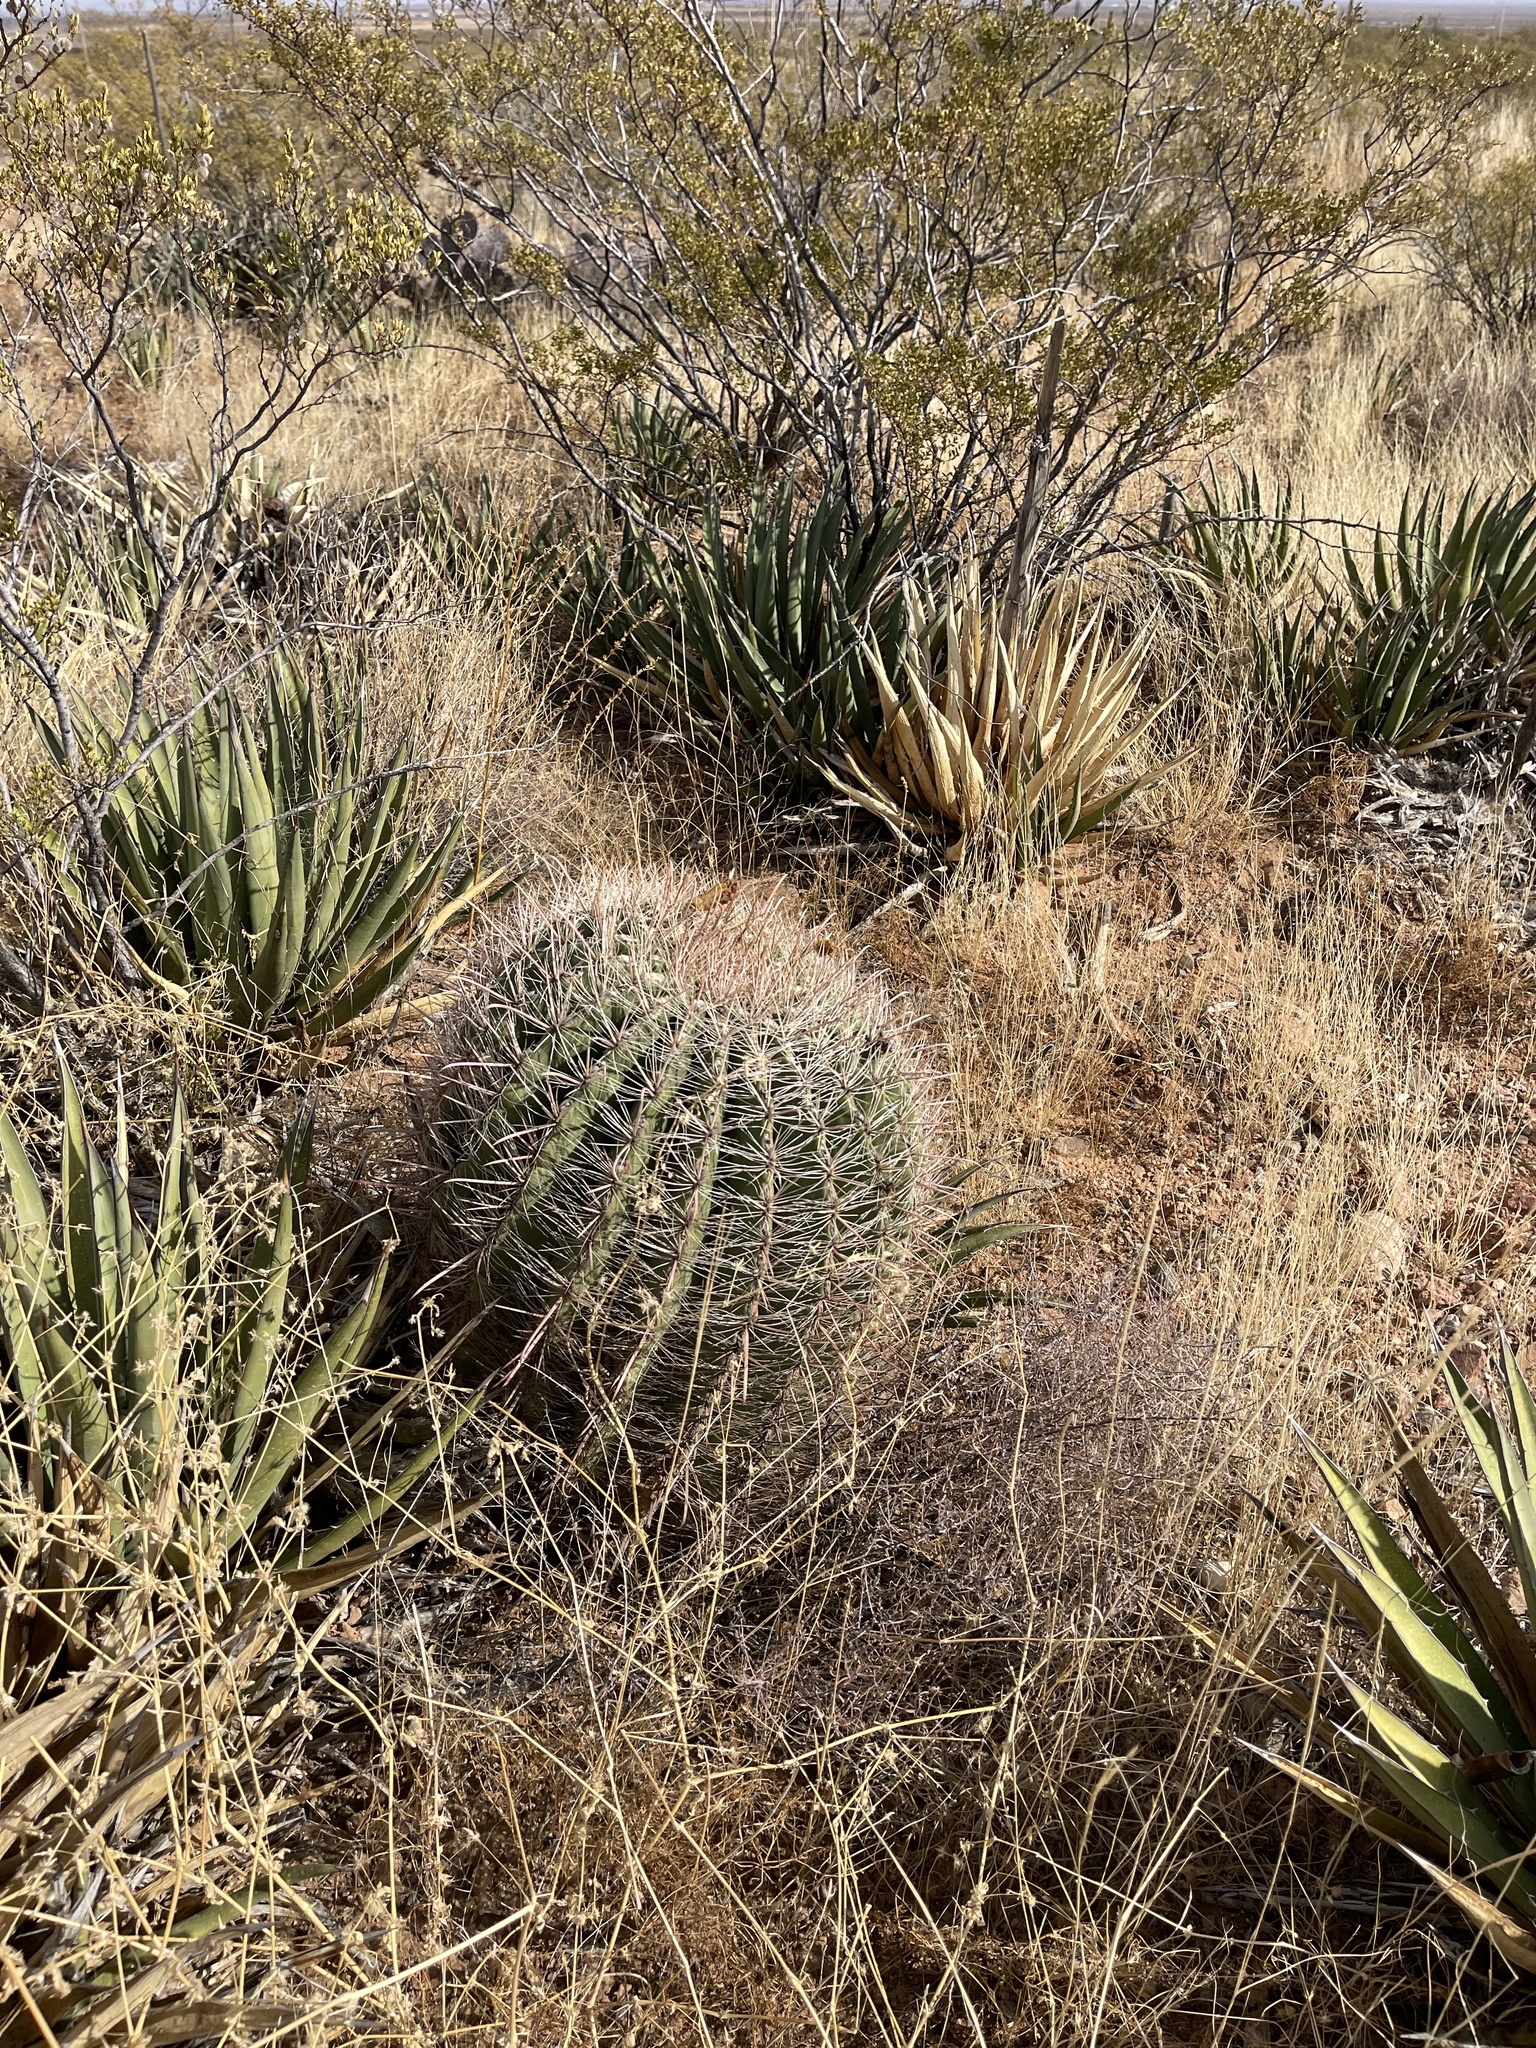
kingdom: Plantae
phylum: Tracheophyta
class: Magnoliopsida
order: Caryophyllales
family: Cactaceae
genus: Ferocactus
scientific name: Ferocactus wislizeni
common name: Candy barrel cactus
